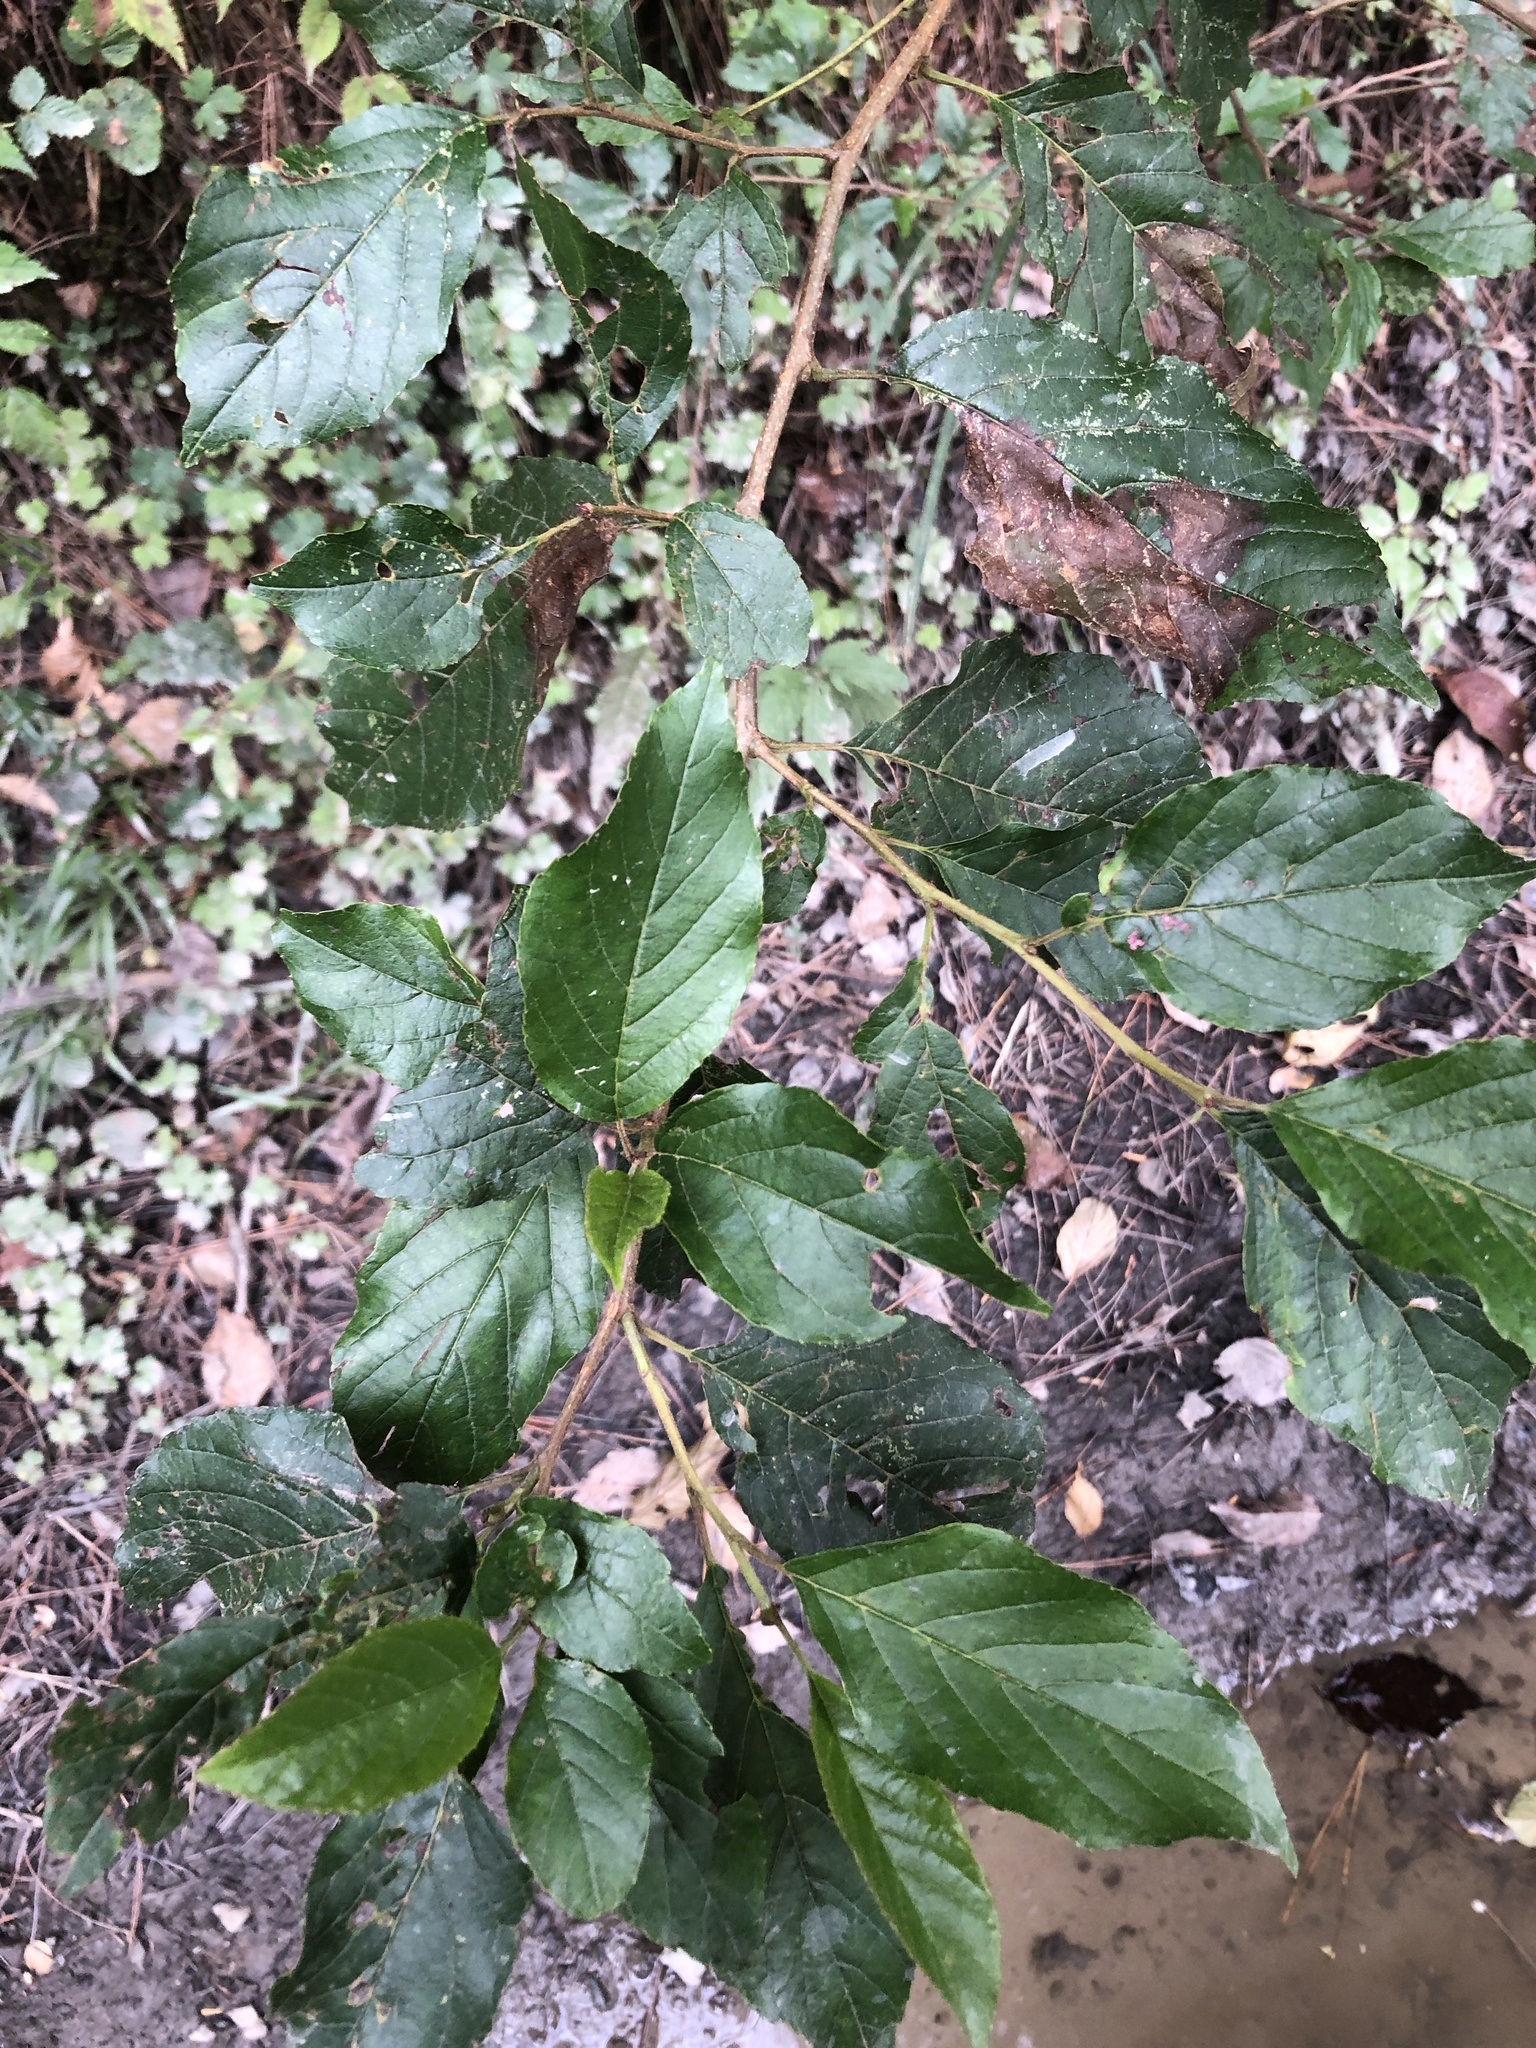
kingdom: Plantae
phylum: Tracheophyta
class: Magnoliopsida
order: Fagales
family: Betulaceae
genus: Alnus
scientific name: Alnus formosana
